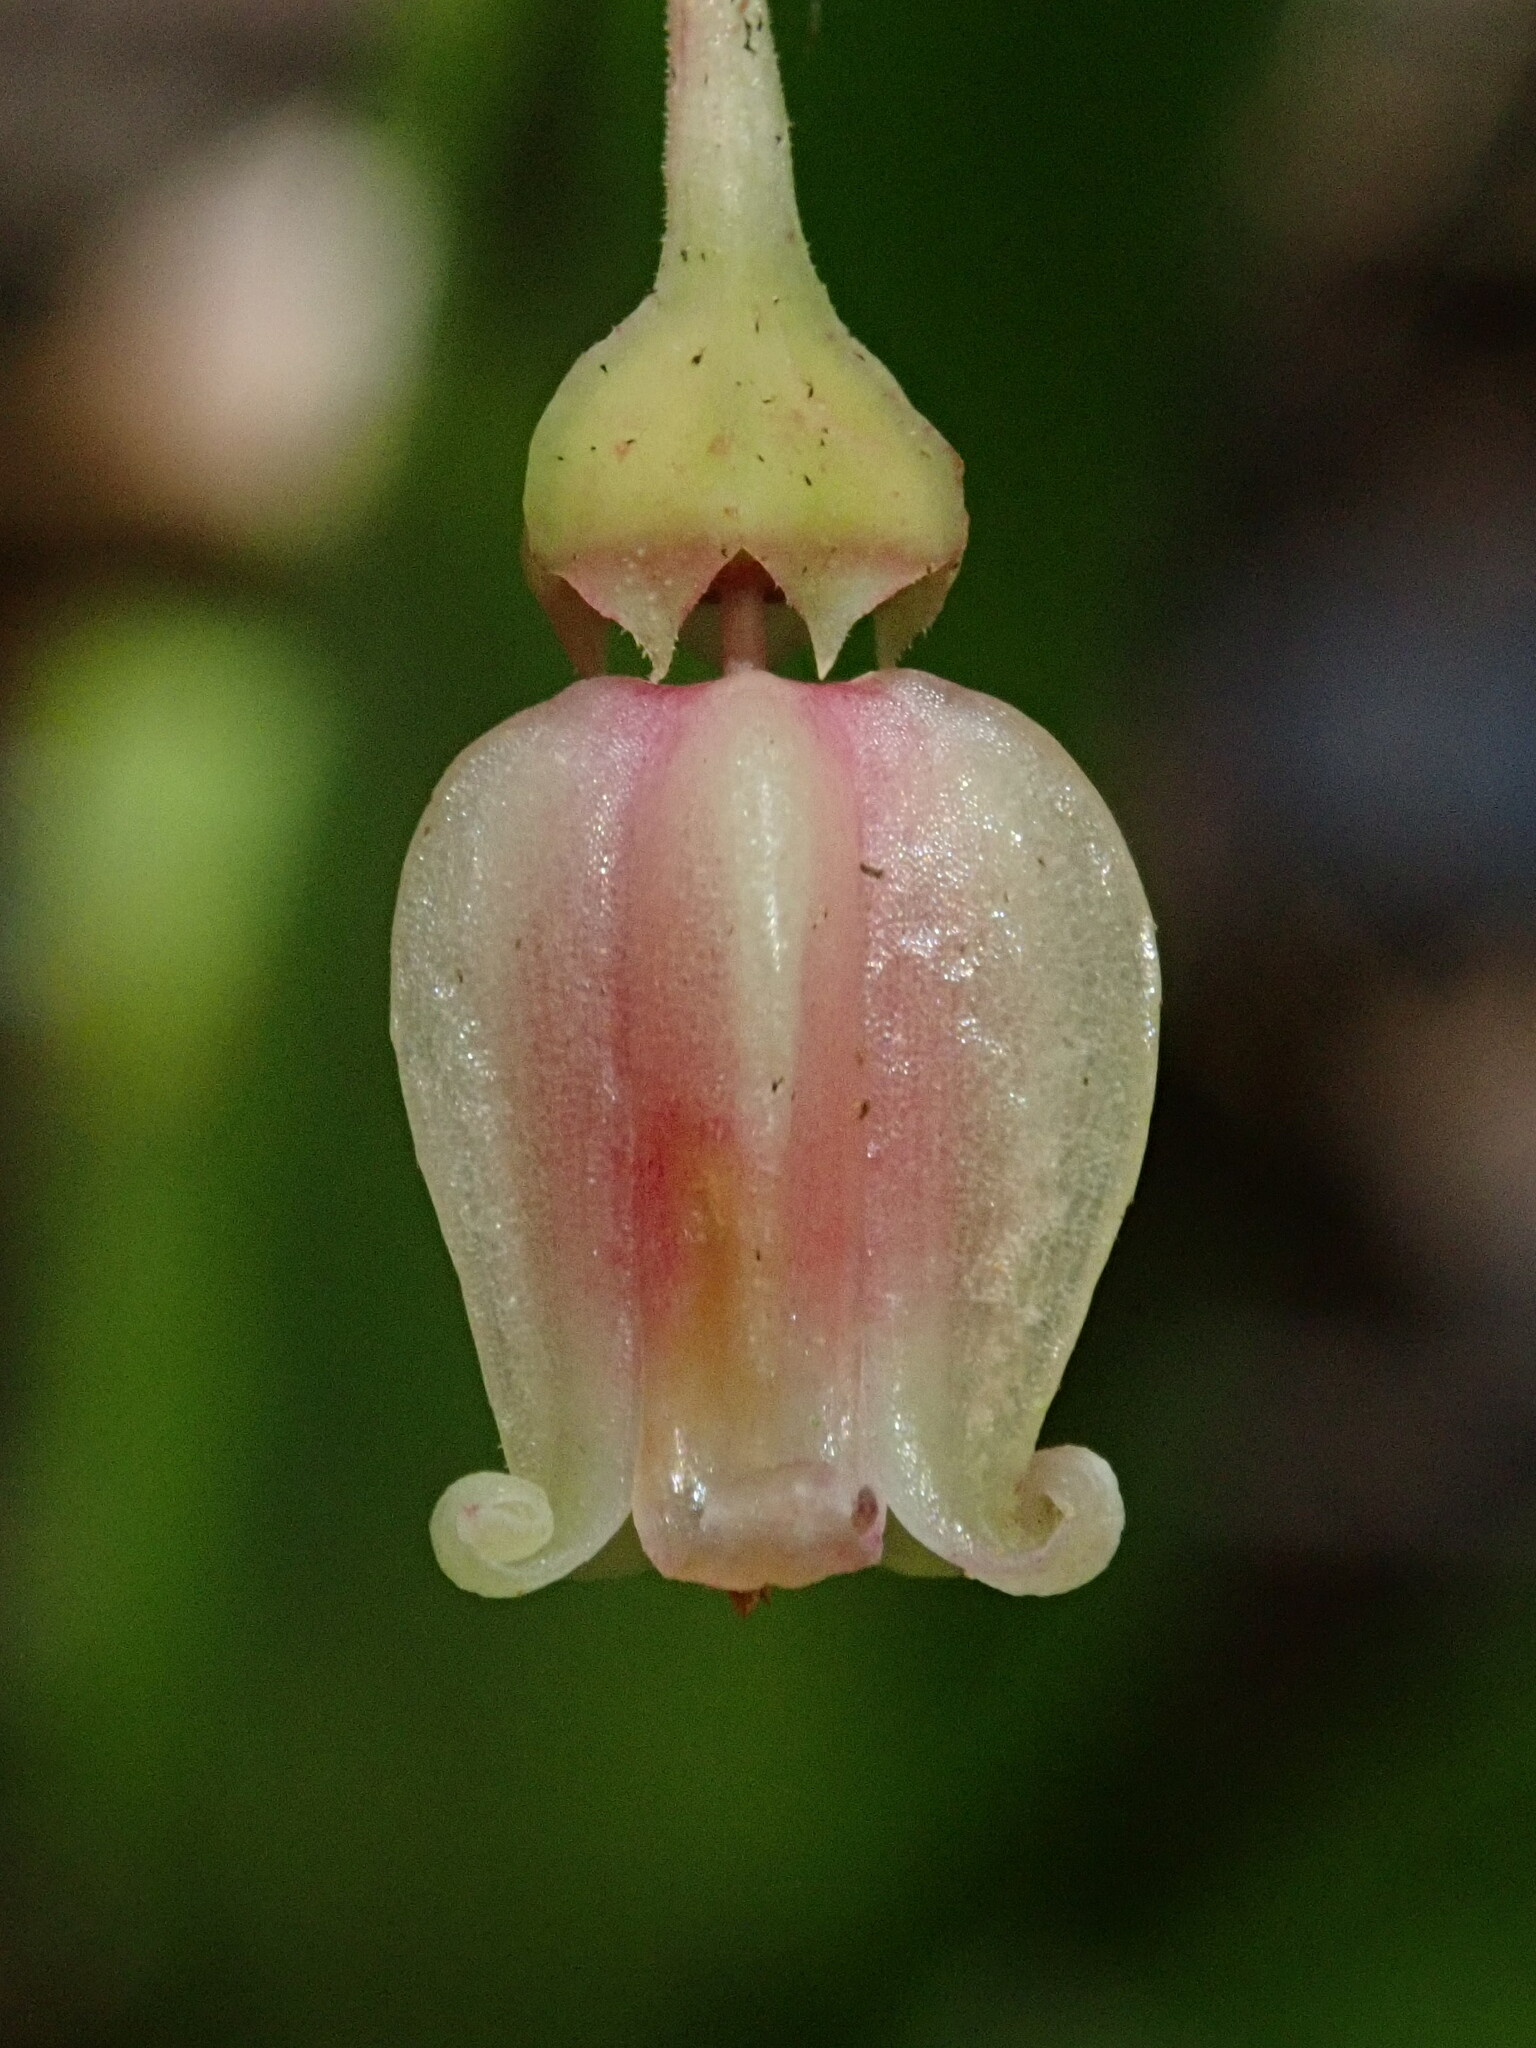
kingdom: Plantae
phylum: Tracheophyta
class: Magnoliopsida
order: Ericales
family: Ericaceae
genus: Anthopterus
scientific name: Anthopterus schultzeae
